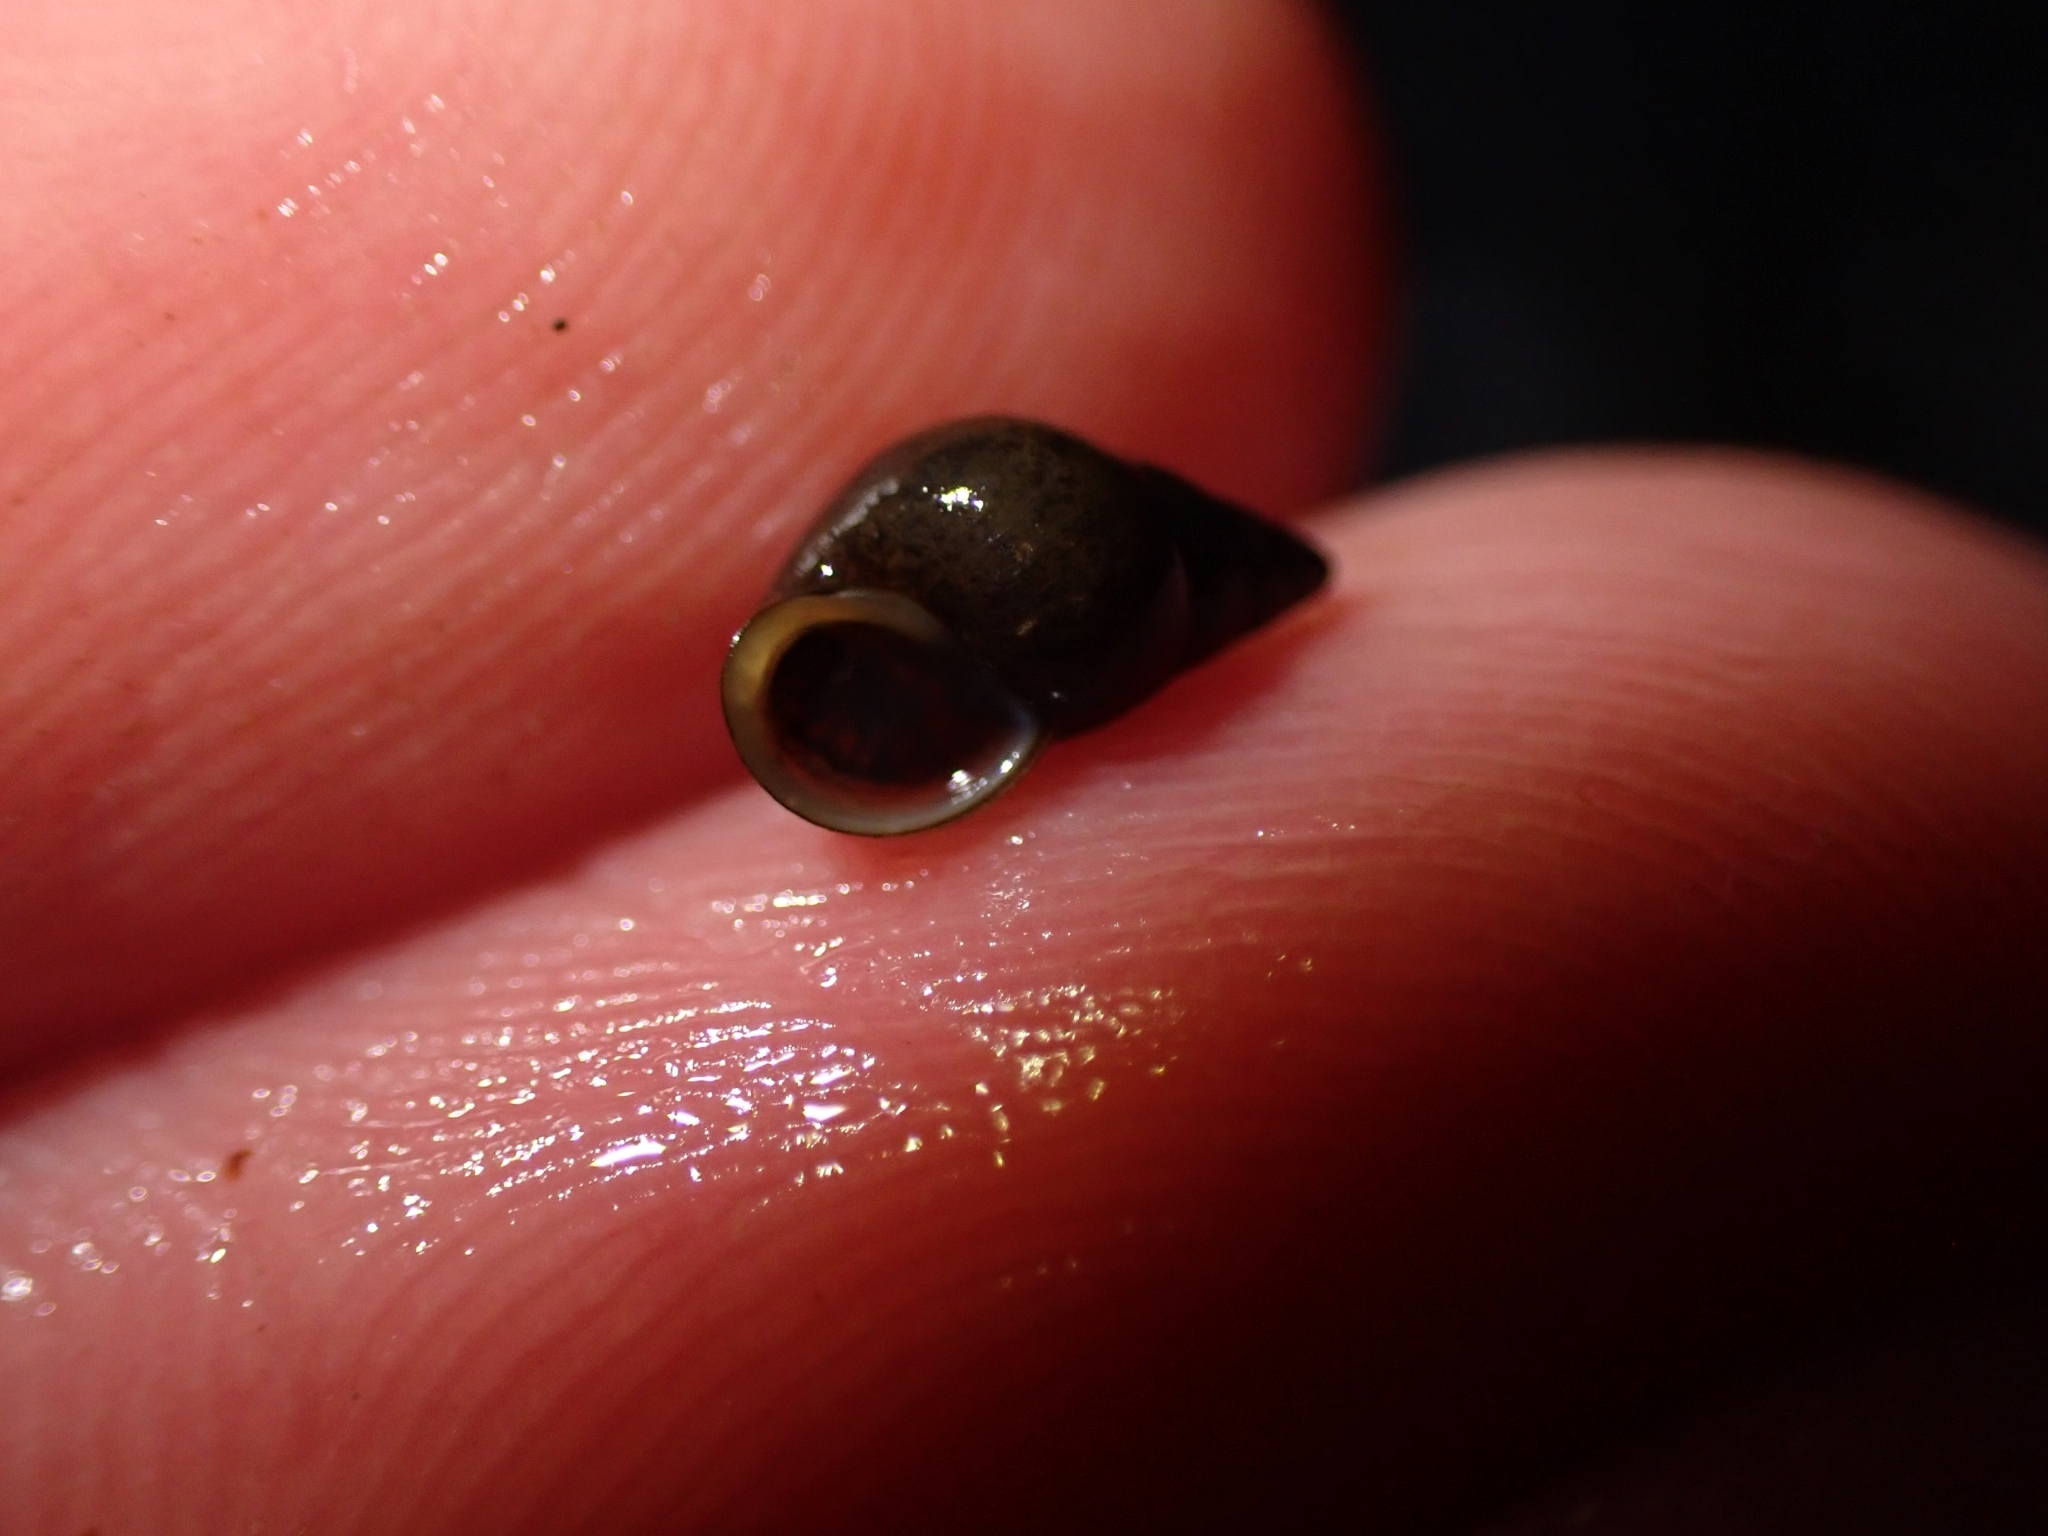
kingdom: Animalia
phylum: Mollusca
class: Gastropoda
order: Littorinimorpha
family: Tateidae
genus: Potamopyrgus
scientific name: Potamopyrgus antipodarum
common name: Jenkins' spire snail
